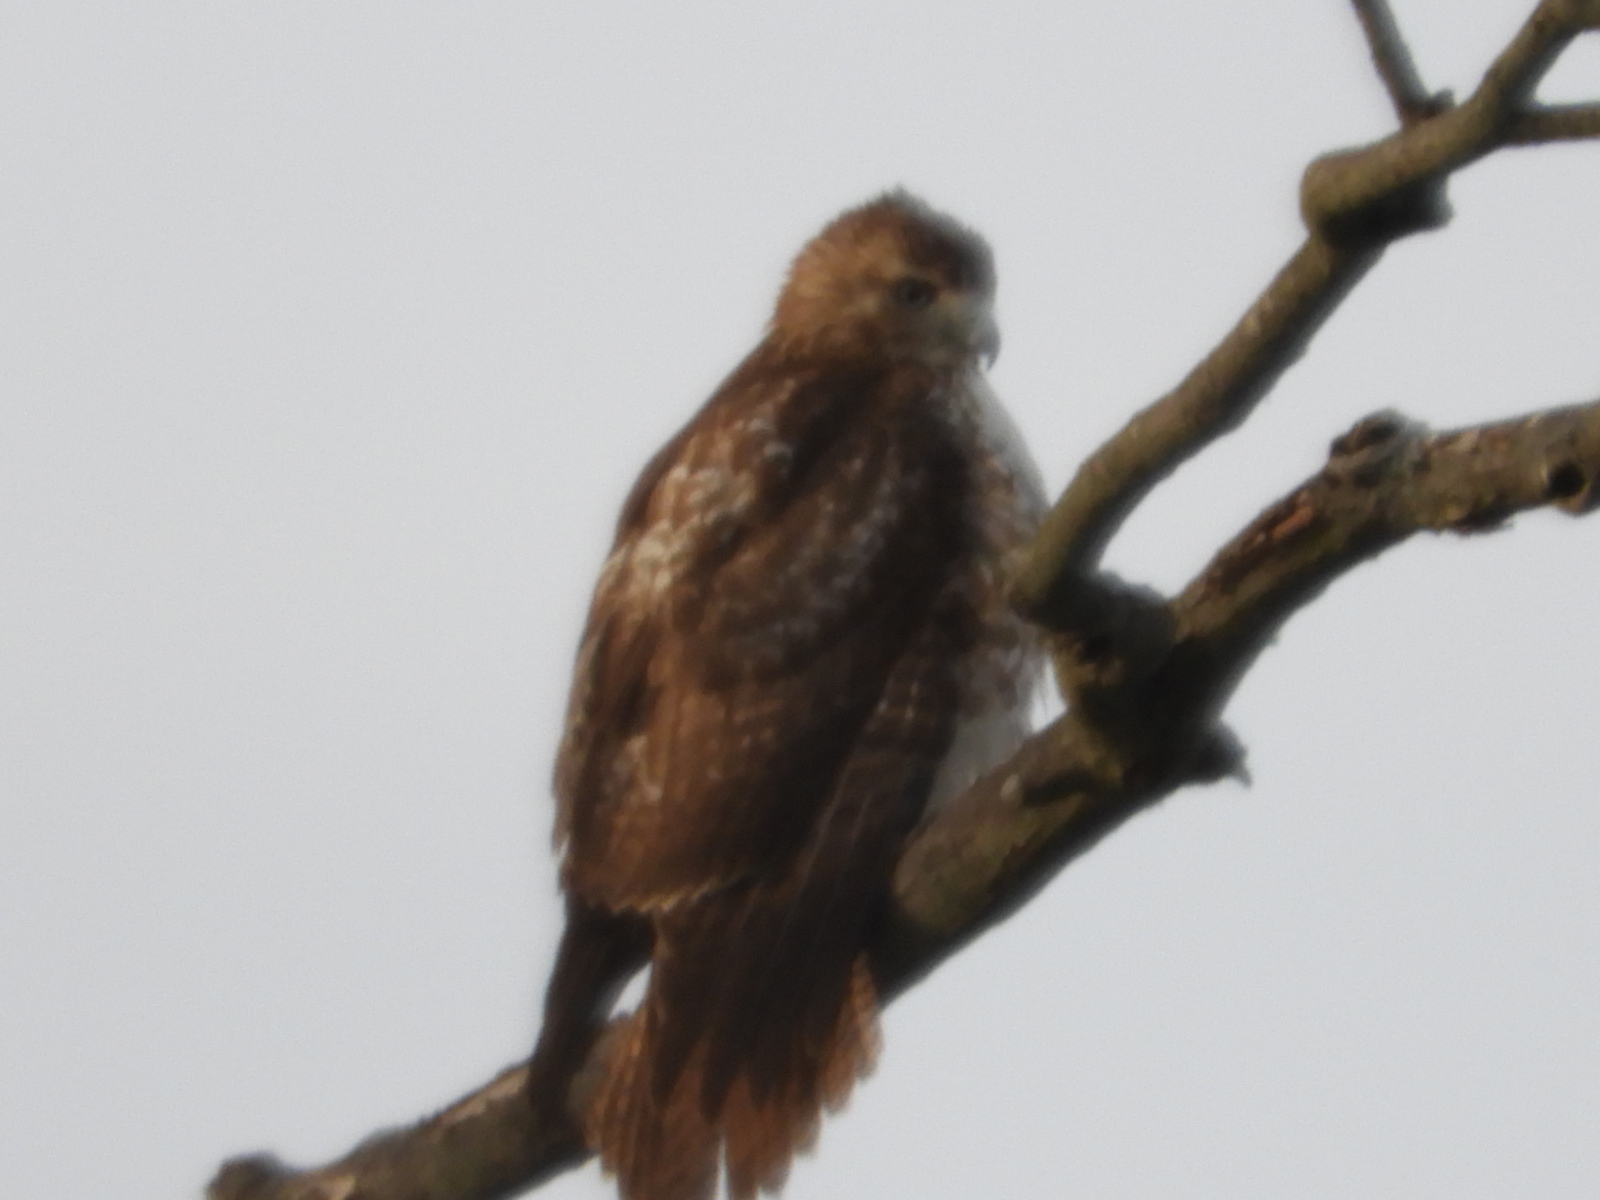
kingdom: Animalia
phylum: Chordata
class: Aves
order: Accipitriformes
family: Accipitridae
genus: Buteo
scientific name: Buteo jamaicensis
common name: Red-tailed hawk
